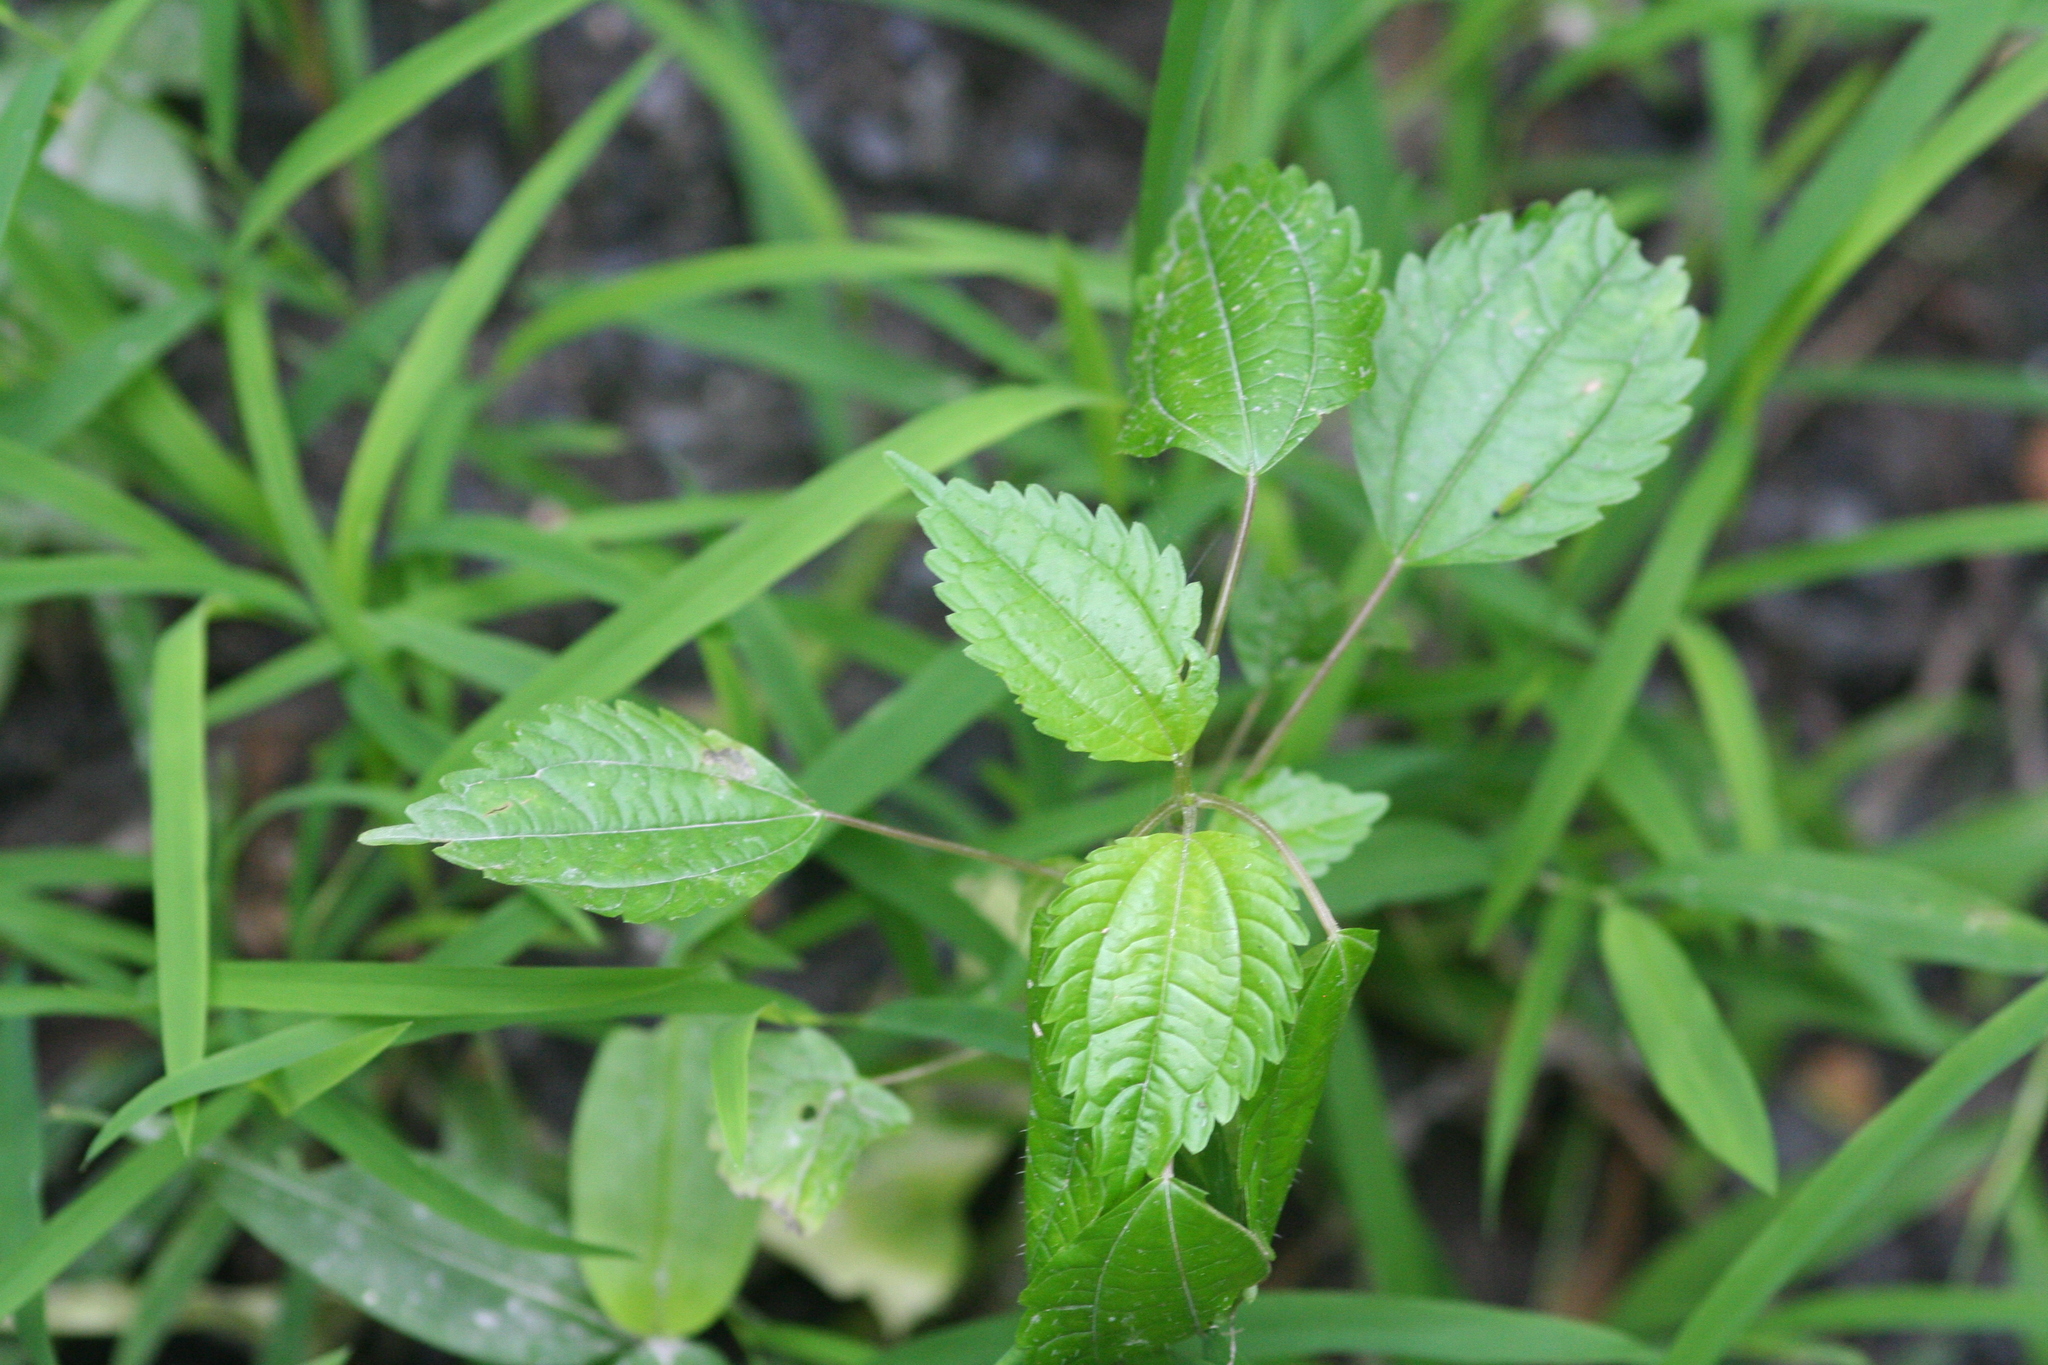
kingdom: Plantae
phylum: Tracheophyta
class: Magnoliopsida
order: Rosales
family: Urticaceae
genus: Pilea
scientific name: Pilea pumila
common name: Clearweed
